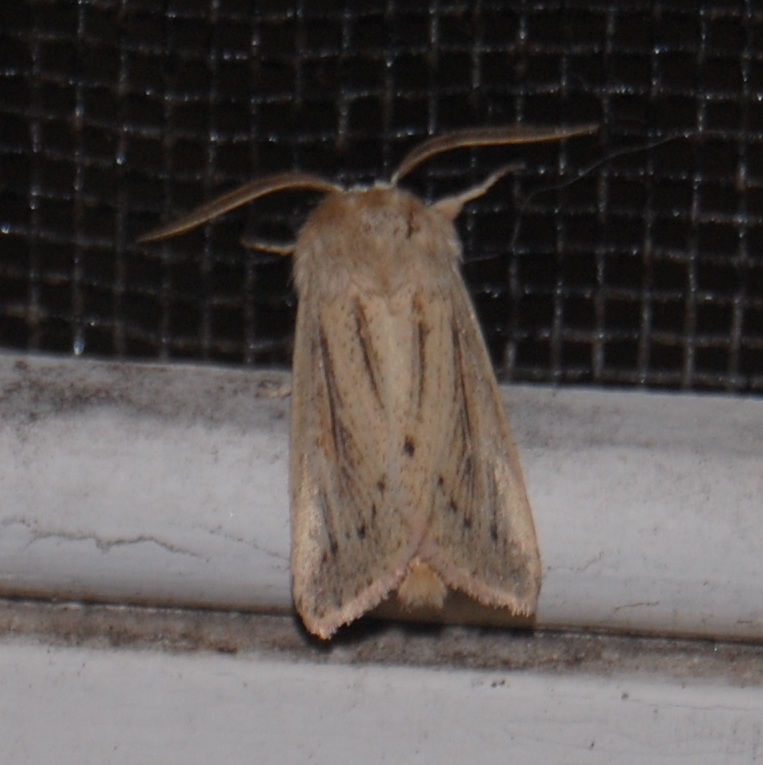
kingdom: Animalia
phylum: Arthropoda
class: Insecta
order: Lepidoptera
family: Noctuidae
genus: Tripseuxoa
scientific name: Tripseuxoa strigata
